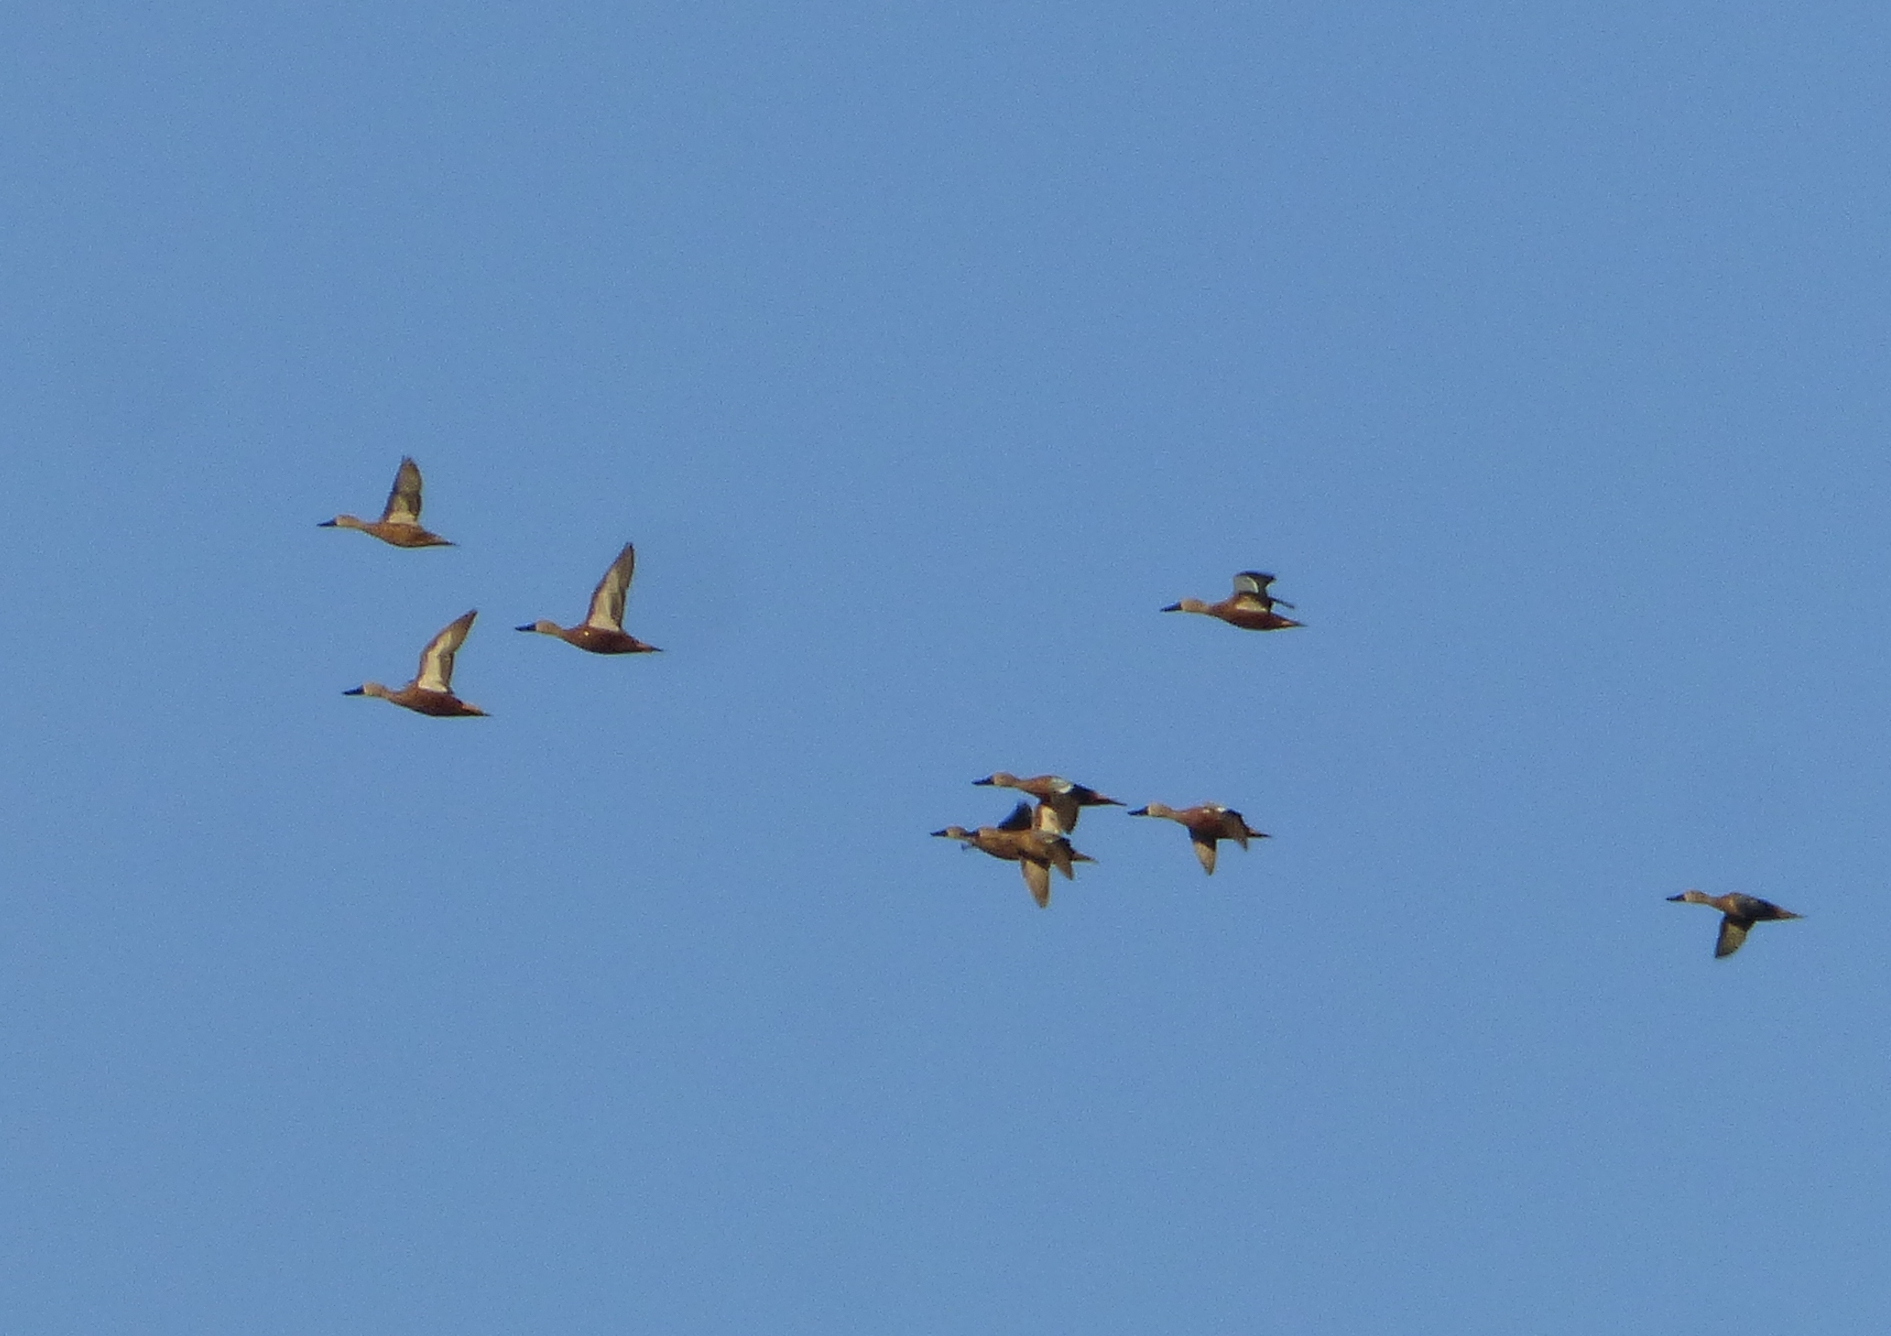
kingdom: Animalia
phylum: Chordata
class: Aves
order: Anseriformes
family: Anatidae
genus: Spatula
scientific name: Spatula platalea
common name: Red shoveler
